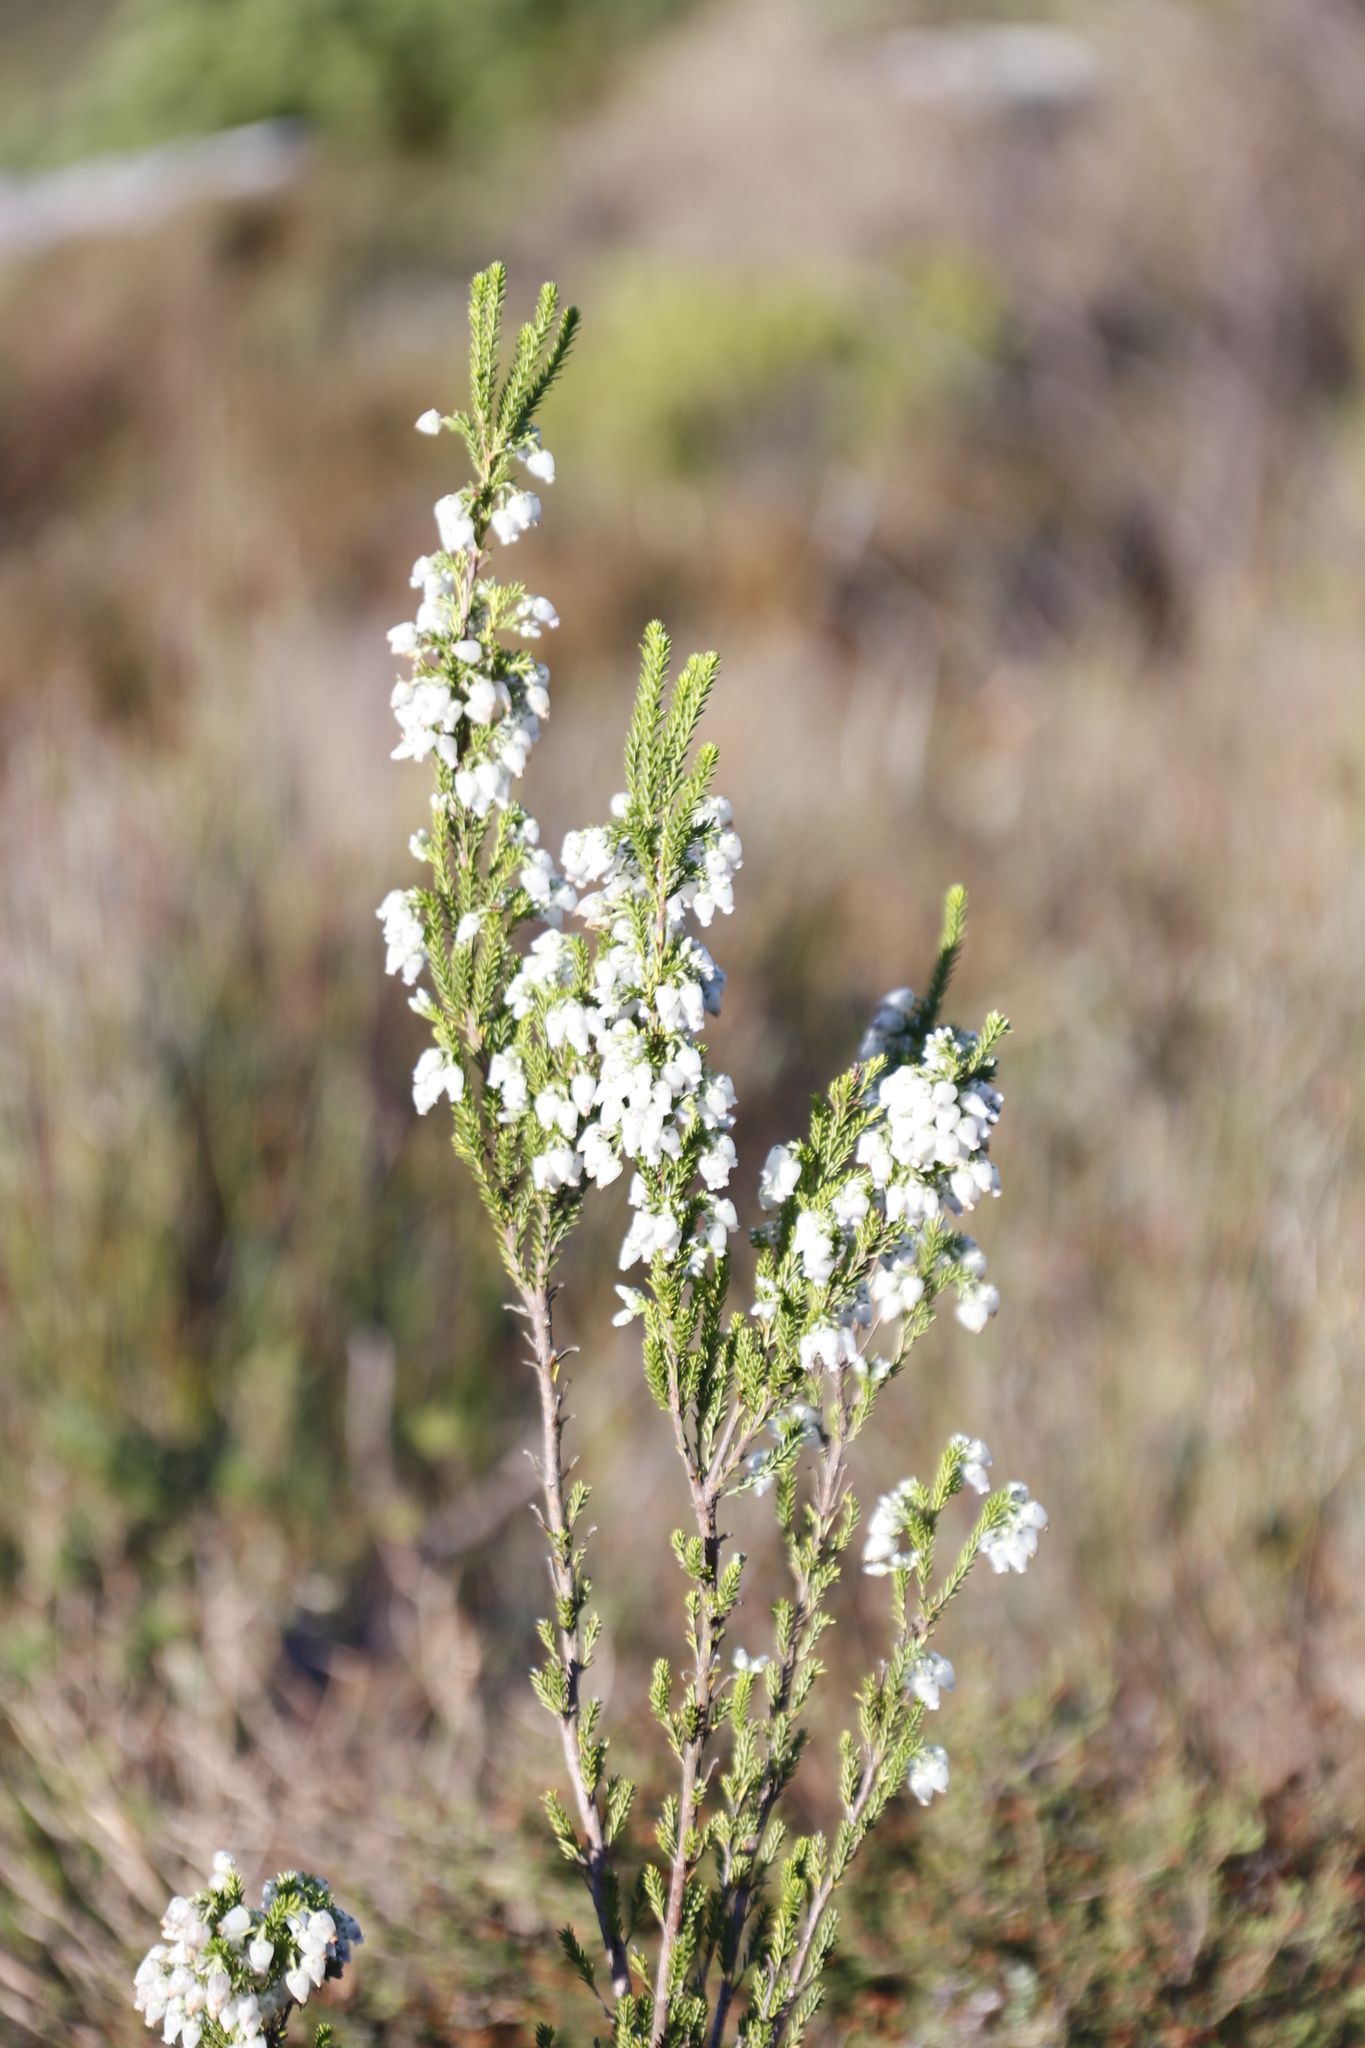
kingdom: Plantae
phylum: Tracheophyta
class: Magnoliopsida
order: Ericales
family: Ericaceae
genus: Erica
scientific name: Erica physodes
